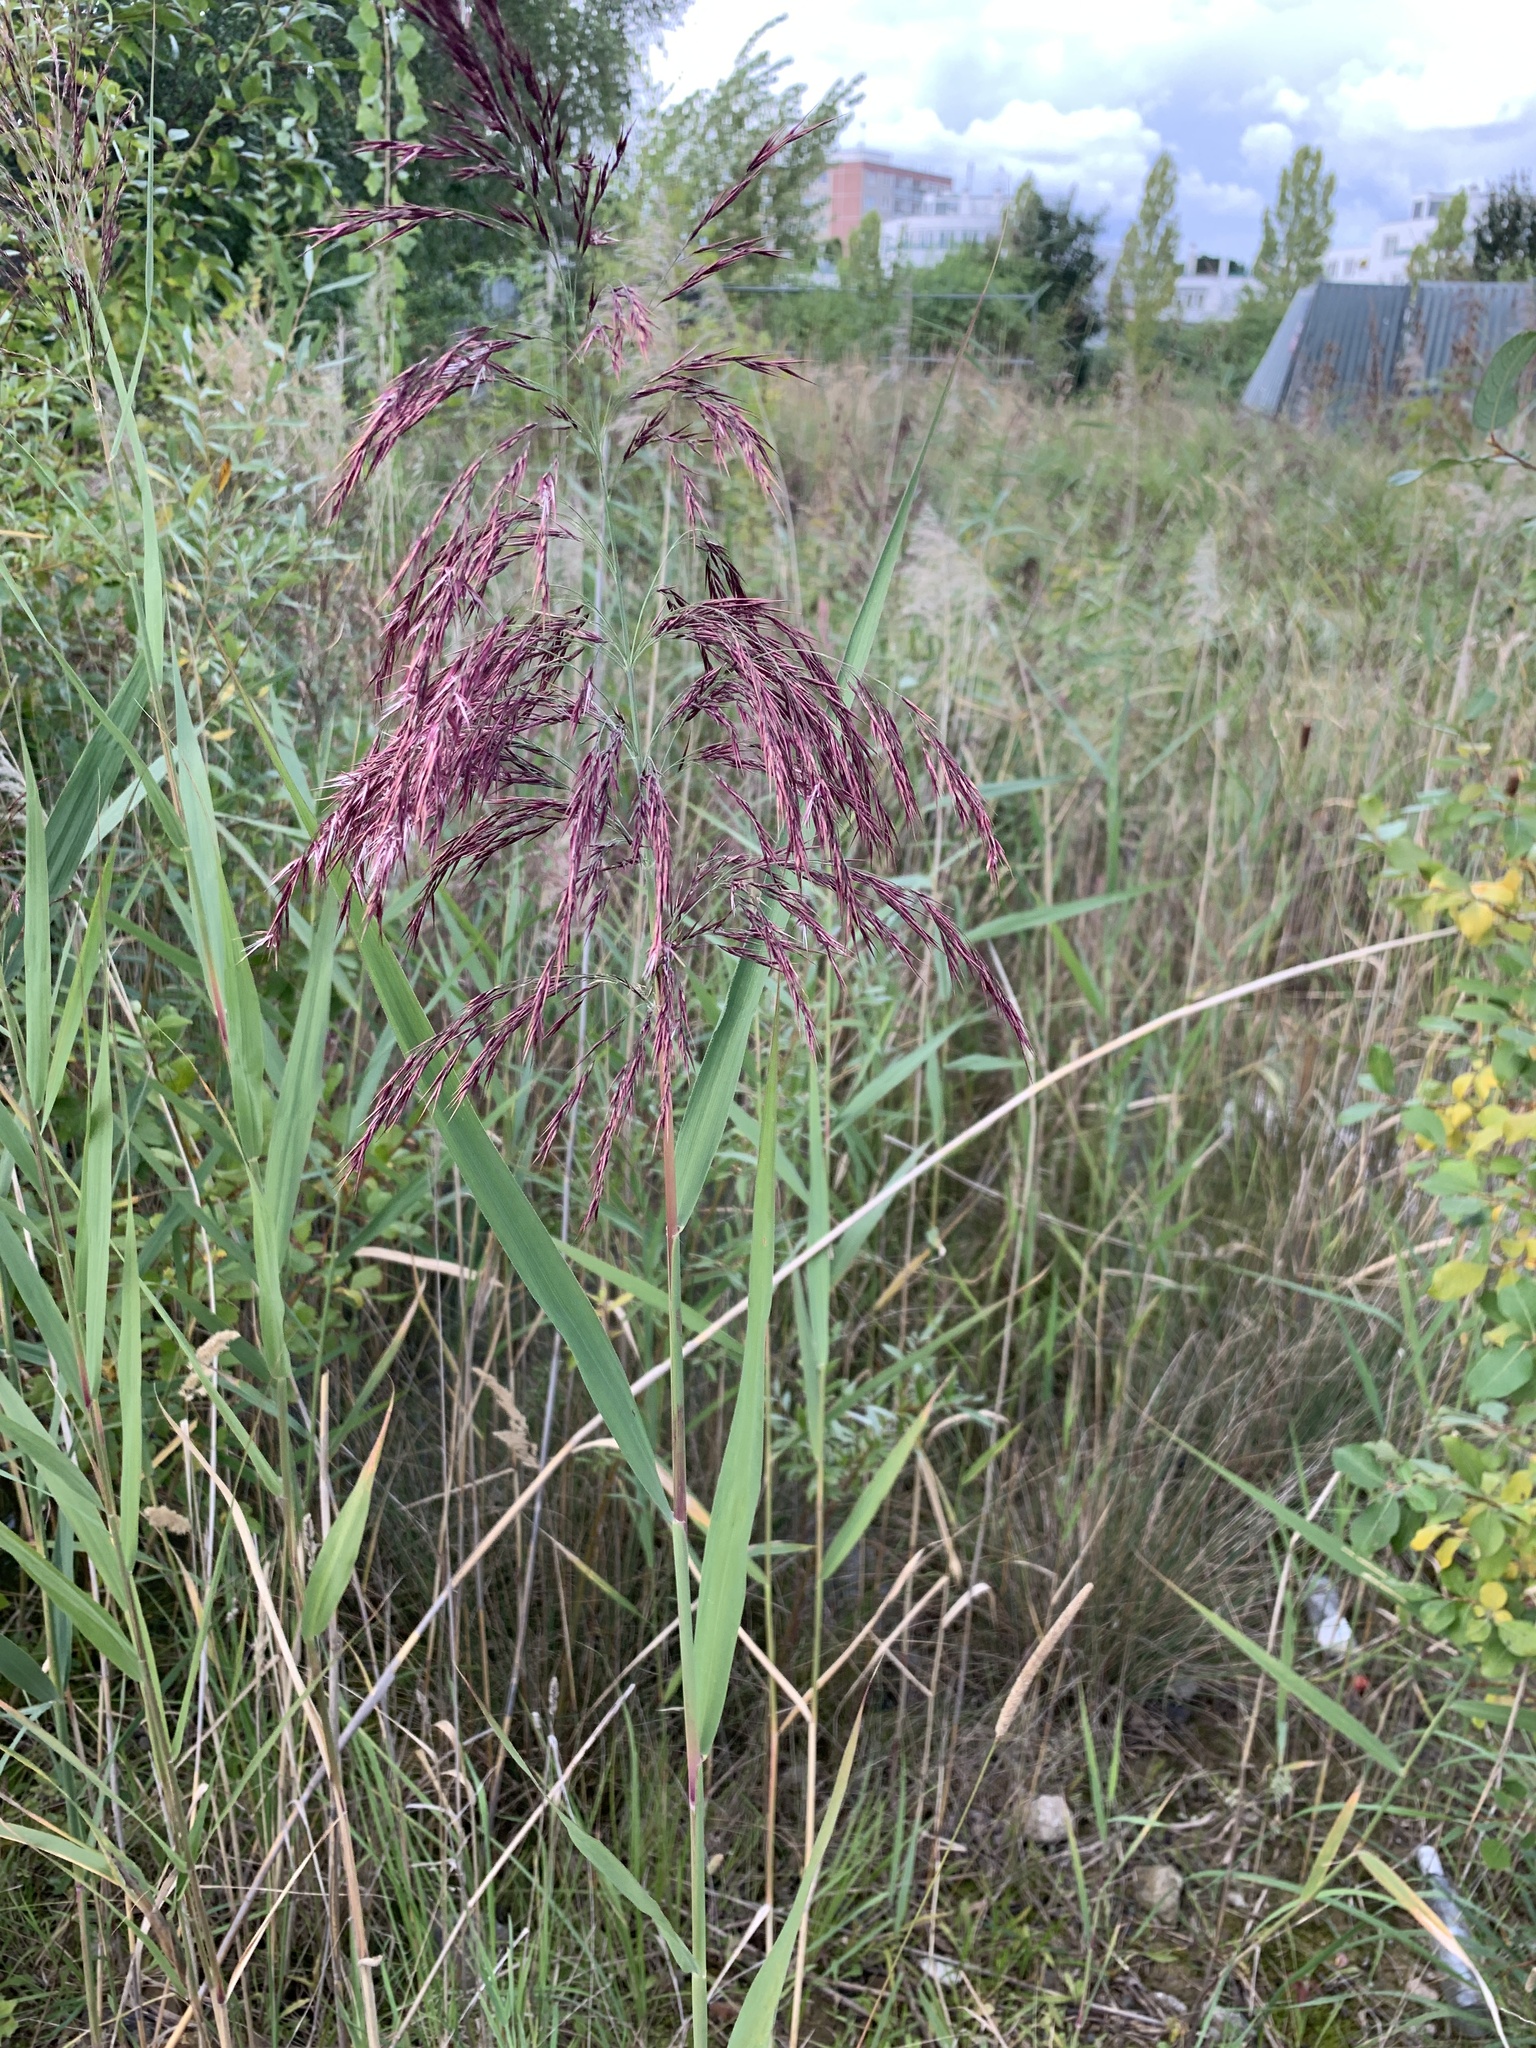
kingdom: Plantae
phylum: Tracheophyta
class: Liliopsida
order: Poales
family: Poaceae
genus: Phragmites
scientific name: Phragmites australis
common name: Common reed
